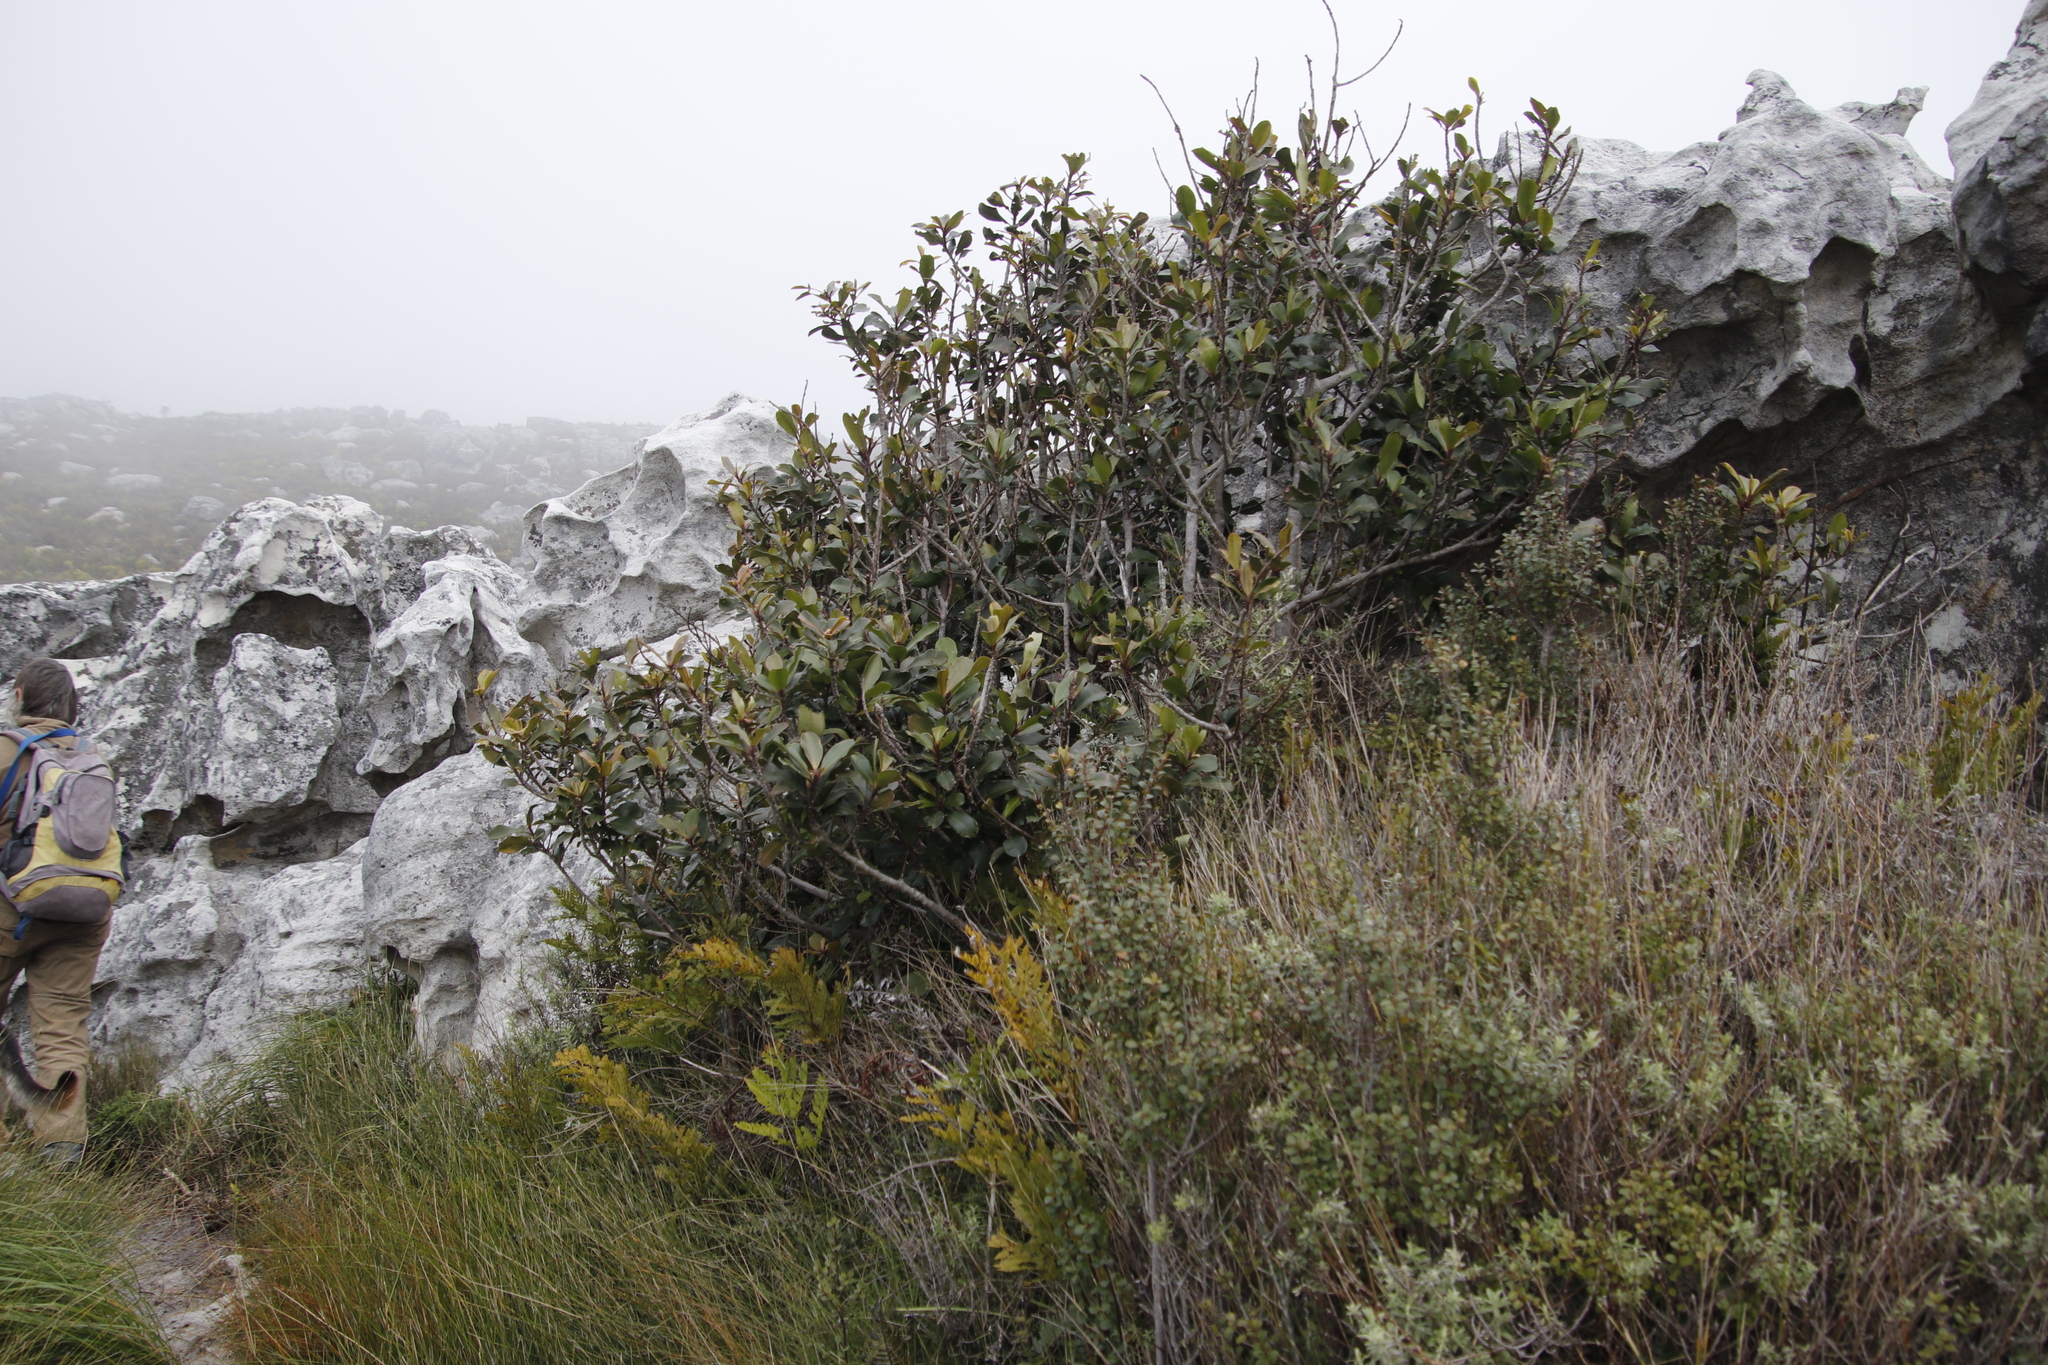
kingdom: Plantae
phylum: Tracheophyta
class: Magnoliopsida
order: Ericales
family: Primulaceae
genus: Myrsine
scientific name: Myrsine melanophloeos
